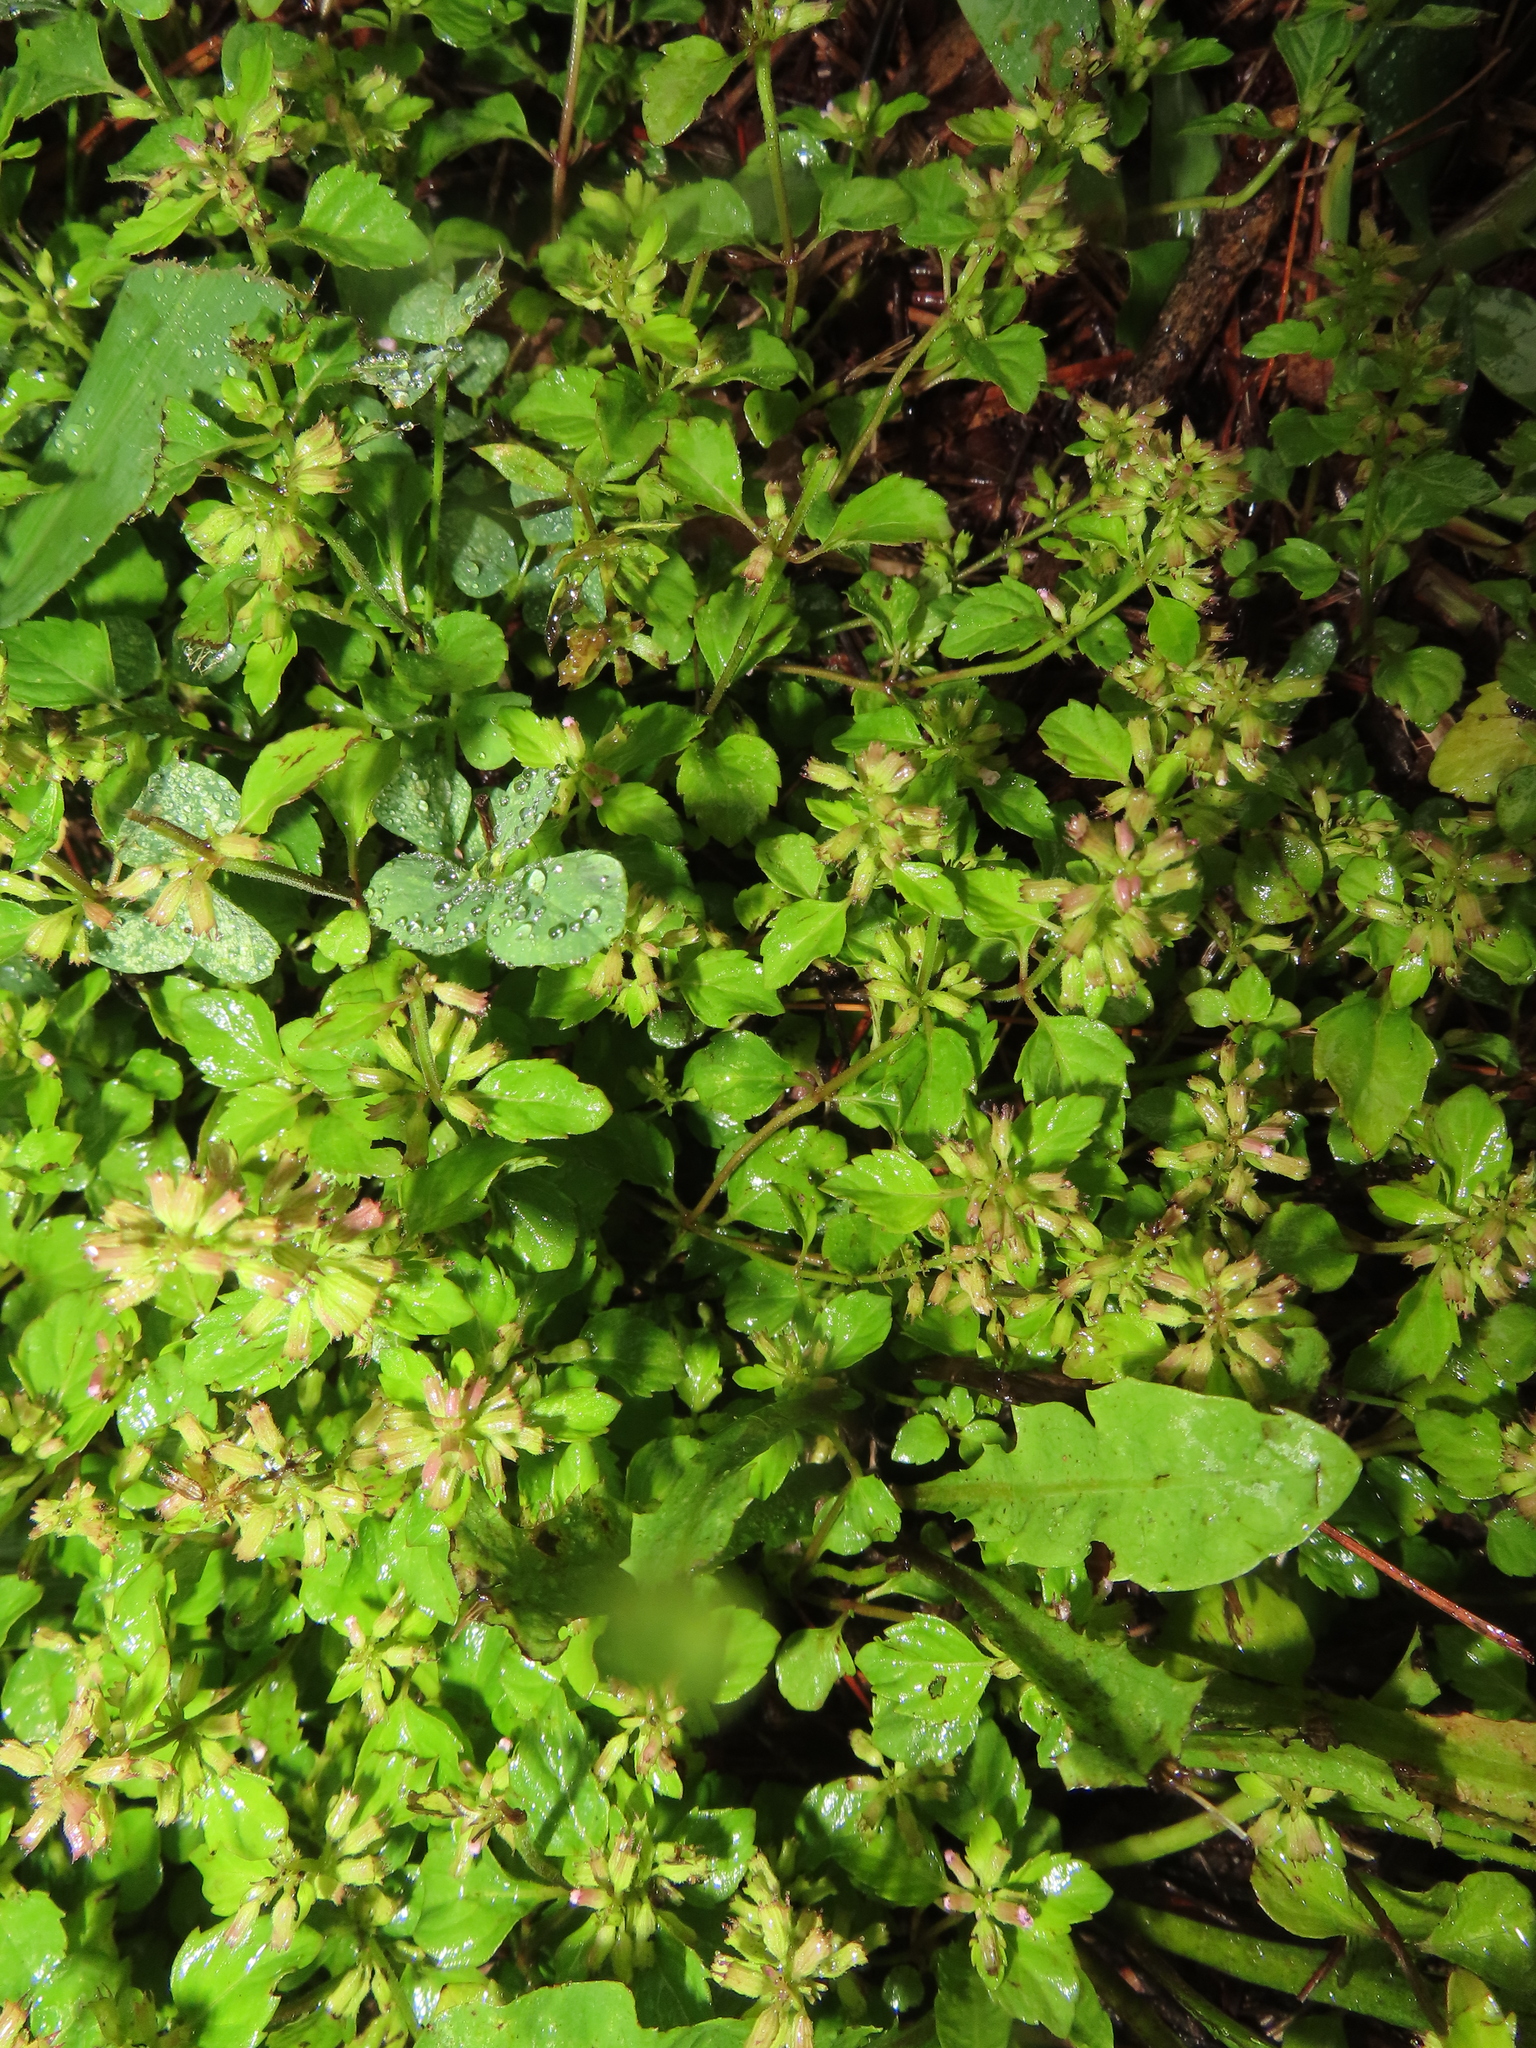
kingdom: Plantae
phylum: Tracheophyta
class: Magnoliopsida
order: Lamiales
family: Lamiaceae
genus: Clinopodium
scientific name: Clinopodium gracile
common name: Slender wild basil
